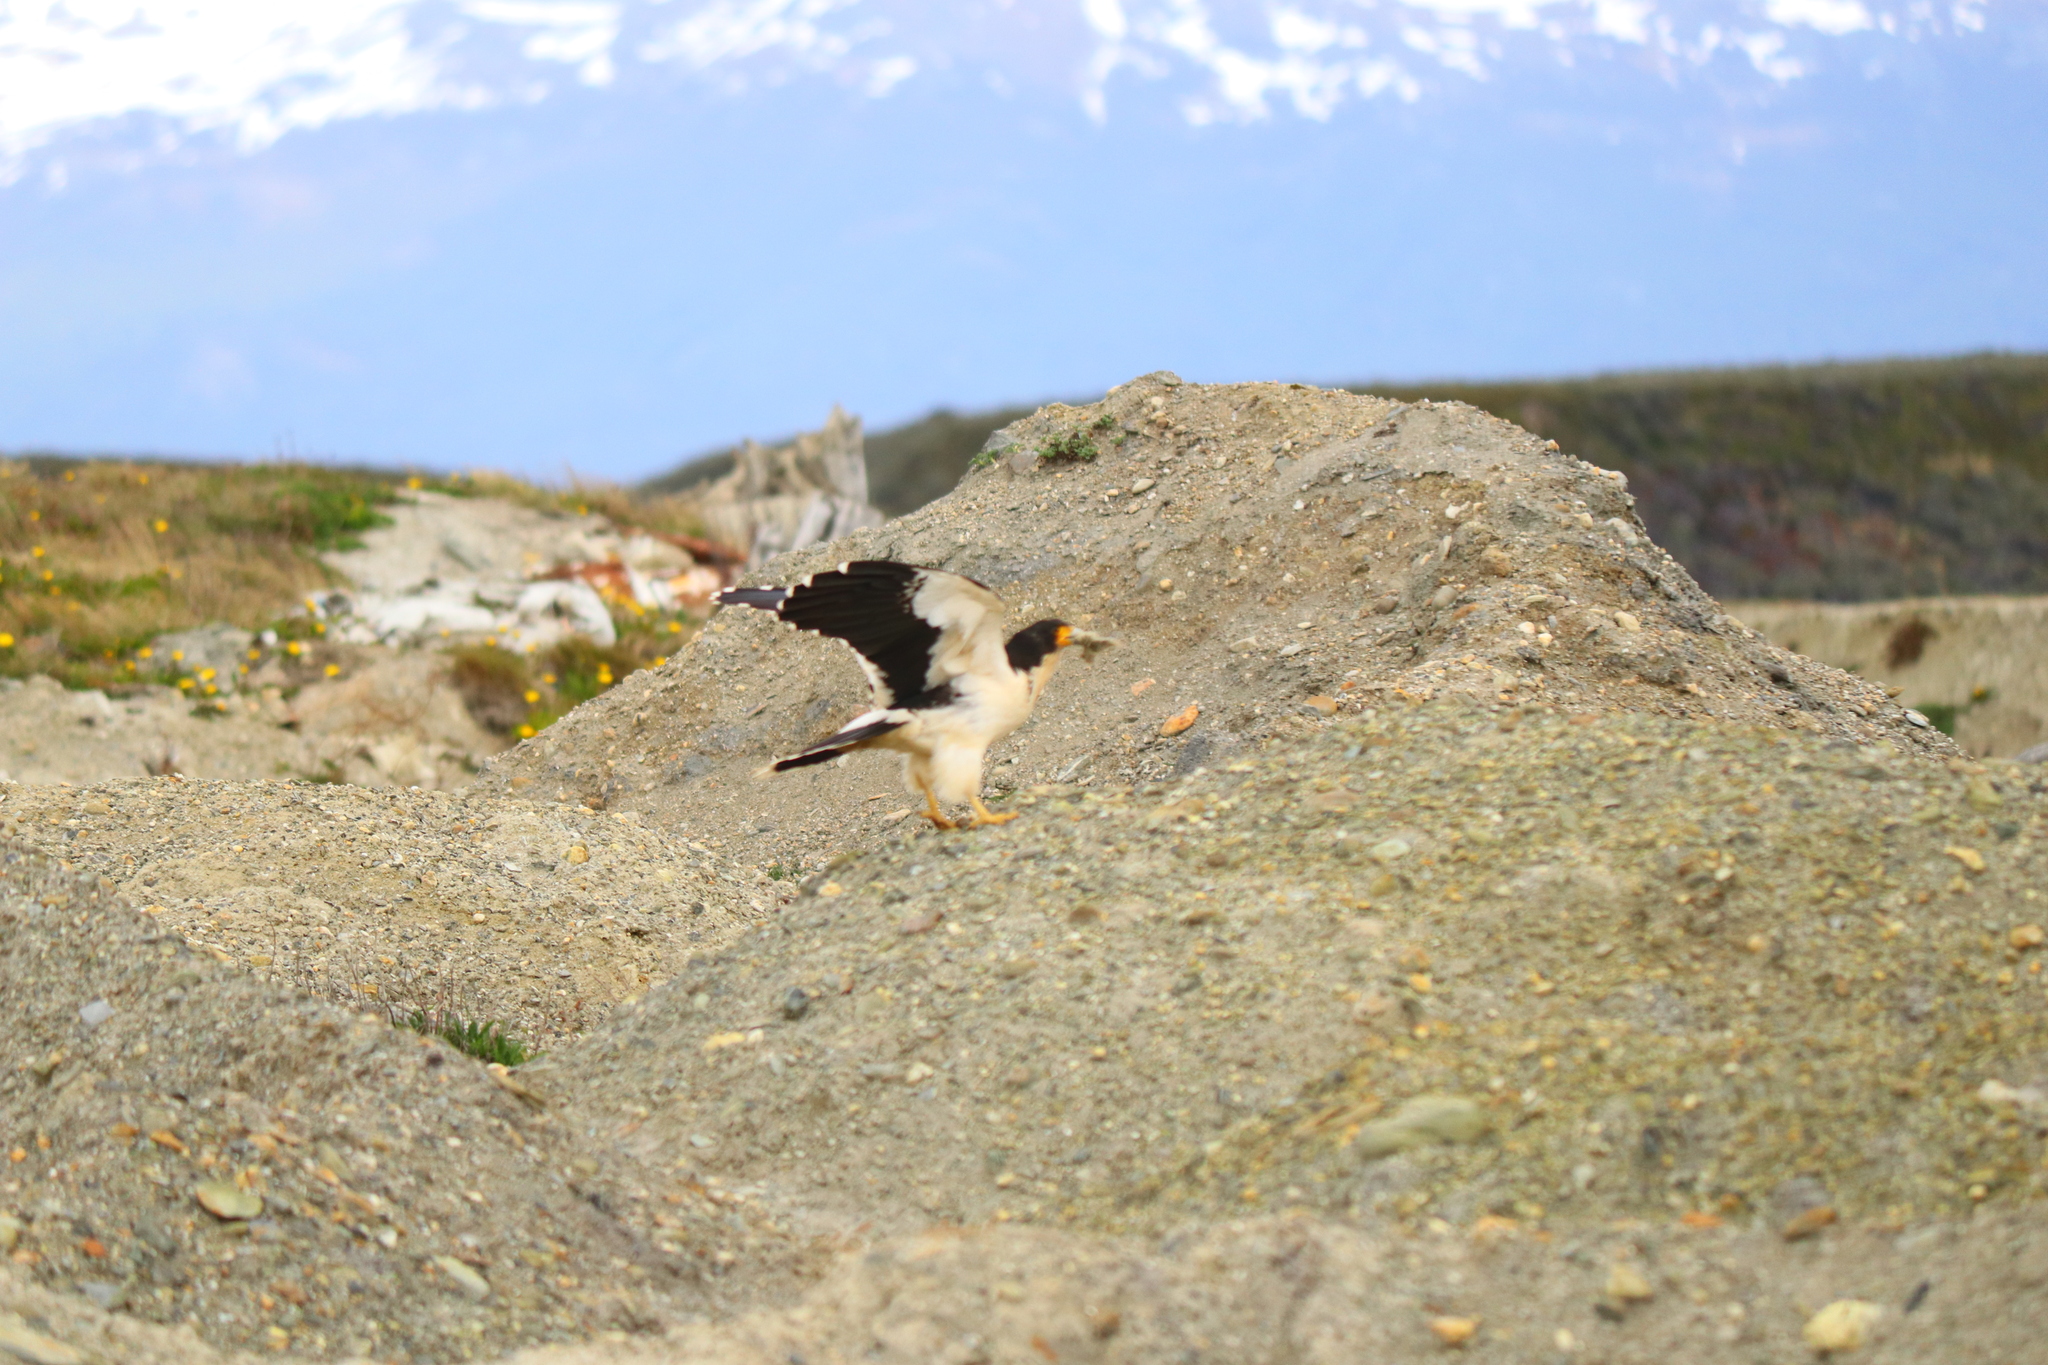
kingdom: Animalia
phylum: Chordata
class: Aves
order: Falconiformes
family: Falconidae
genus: Daptrius
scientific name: Daptrius
